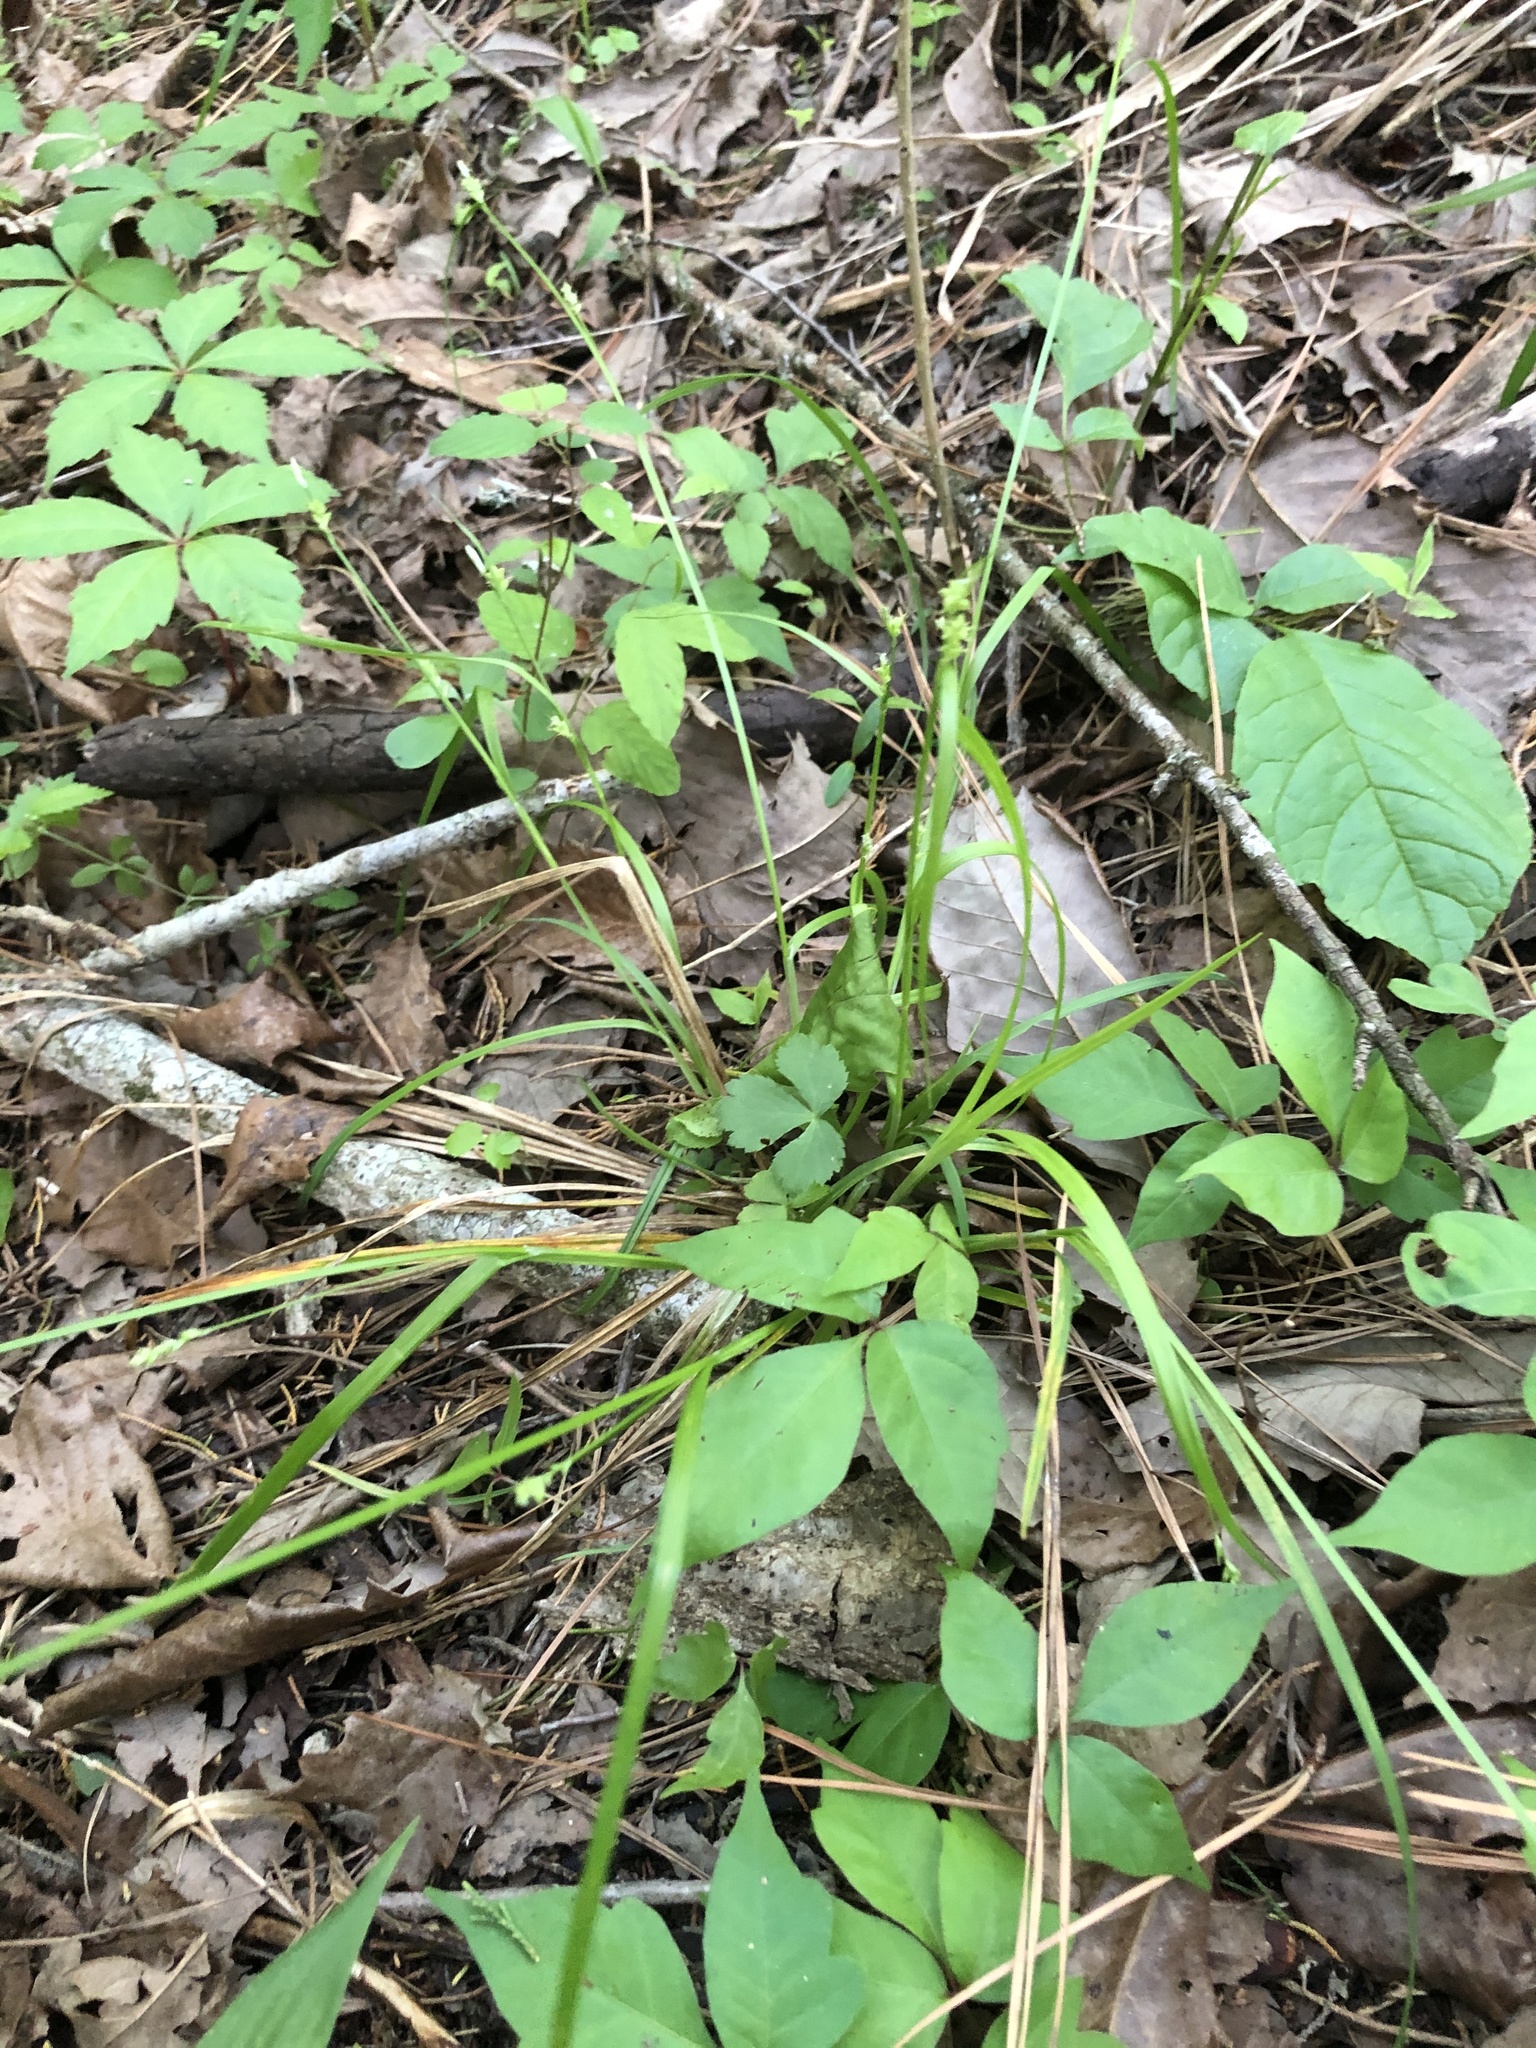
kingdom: Plantae
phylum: Tracheophyta
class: Liliopsida
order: Poales
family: Cyperaceae
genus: Carex
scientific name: Carex blanda
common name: Bland sedge
